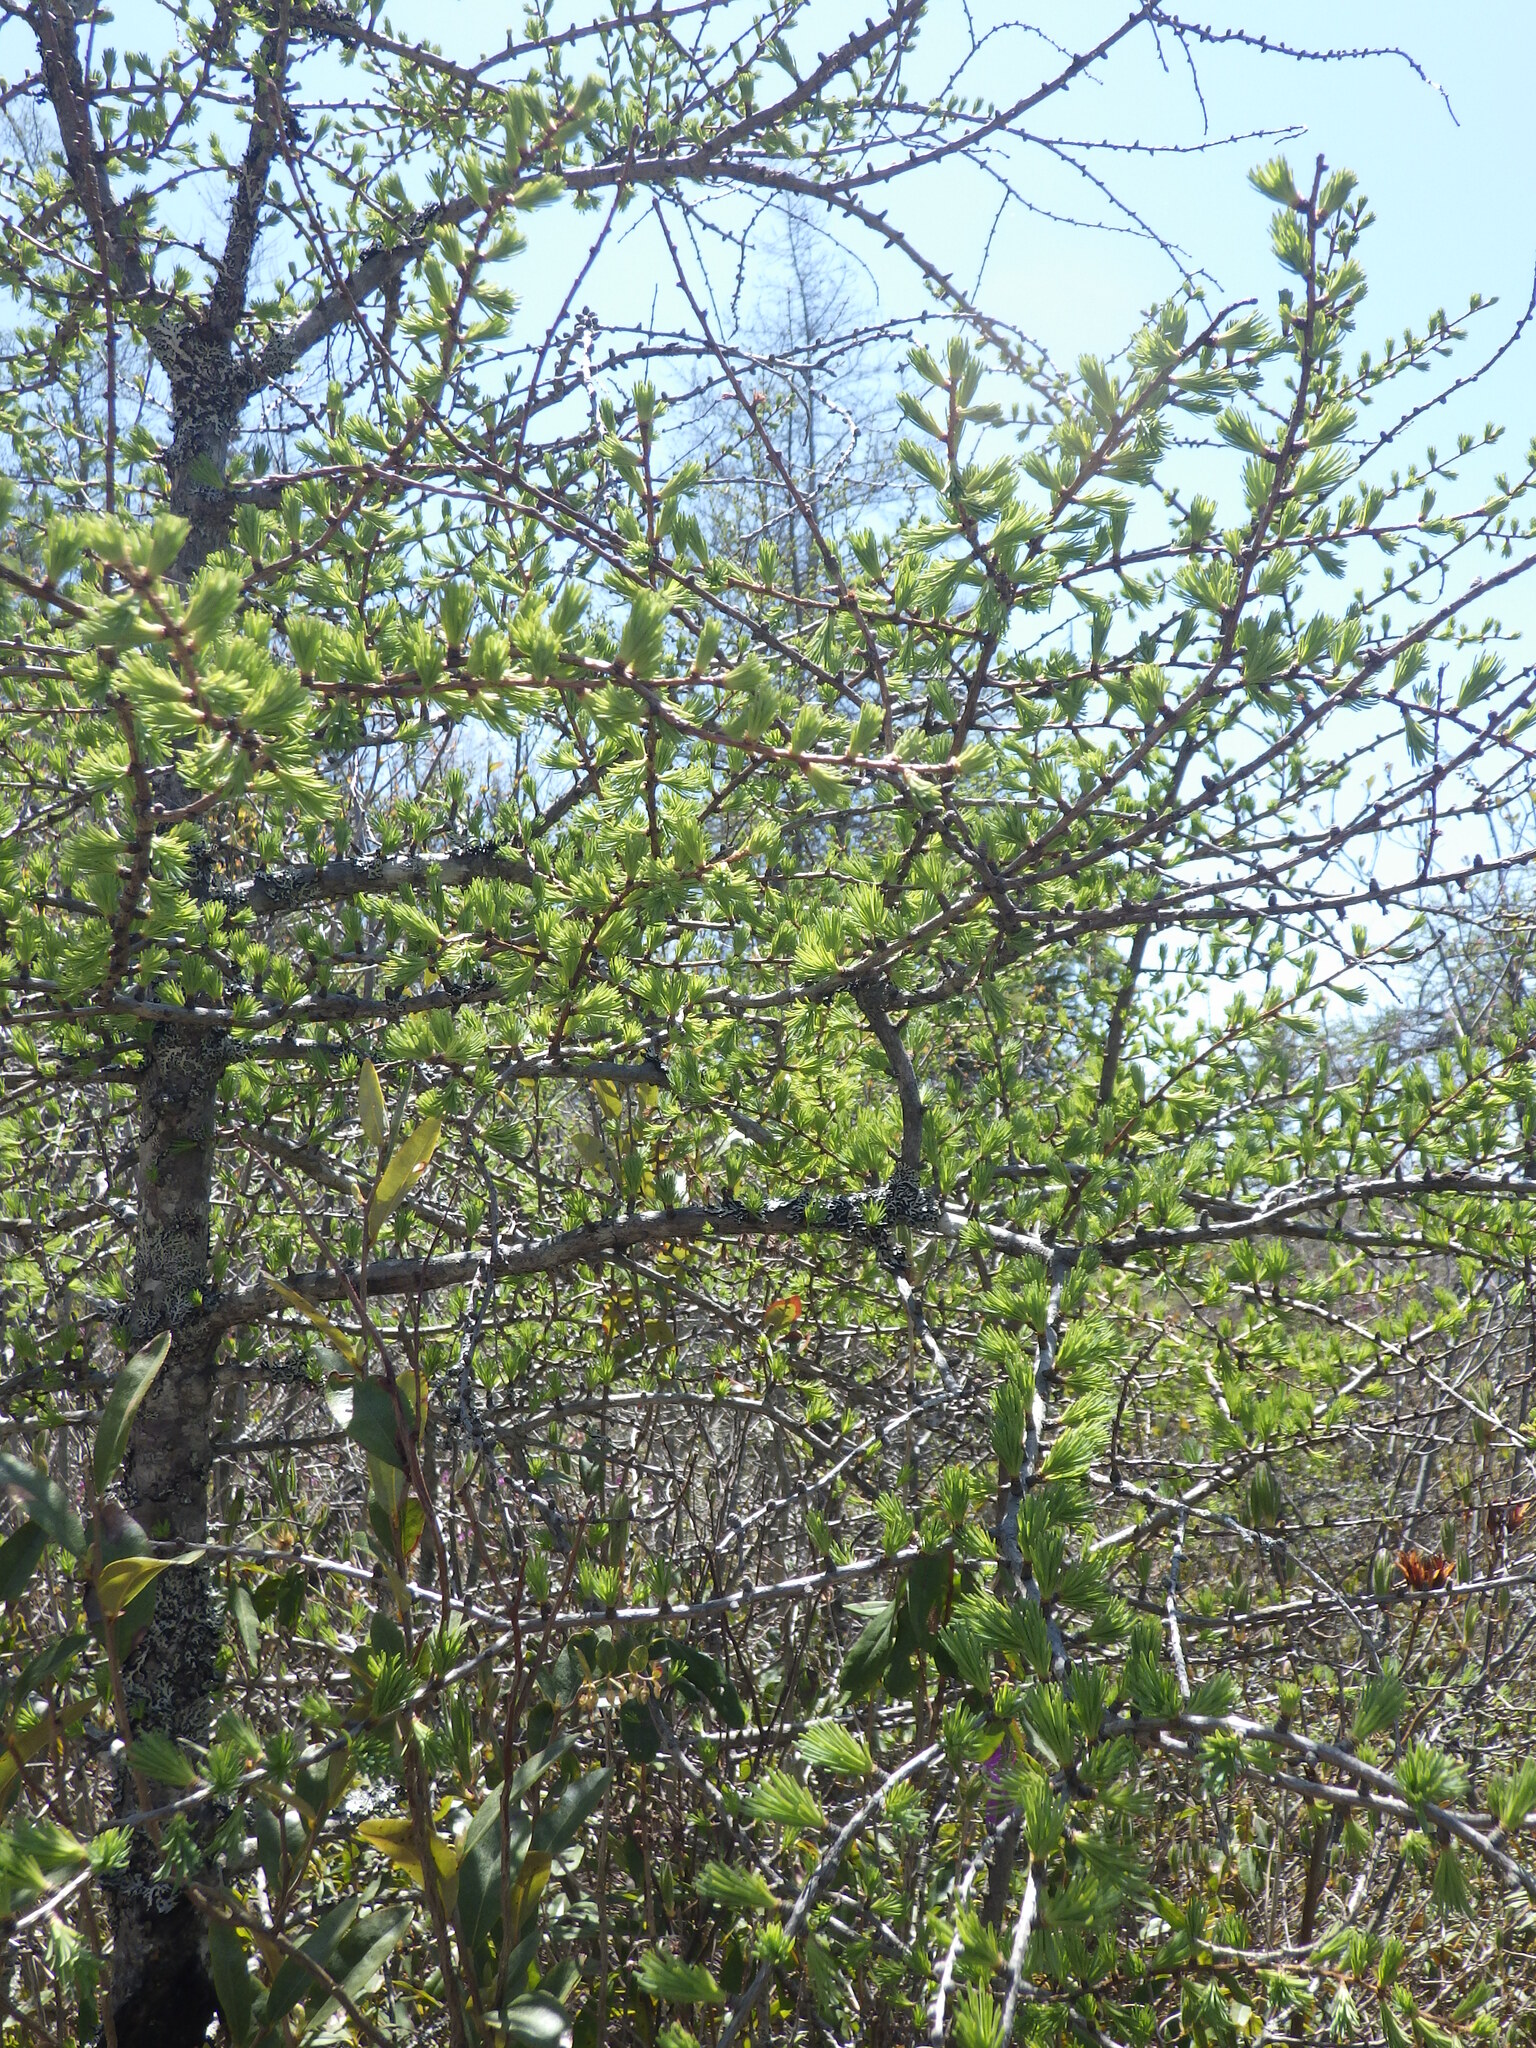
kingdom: Plantae
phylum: Tracheophyta
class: Pinopsida
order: Pinales
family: Pinaceae
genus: Larix
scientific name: Larix laricina
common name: American larch
